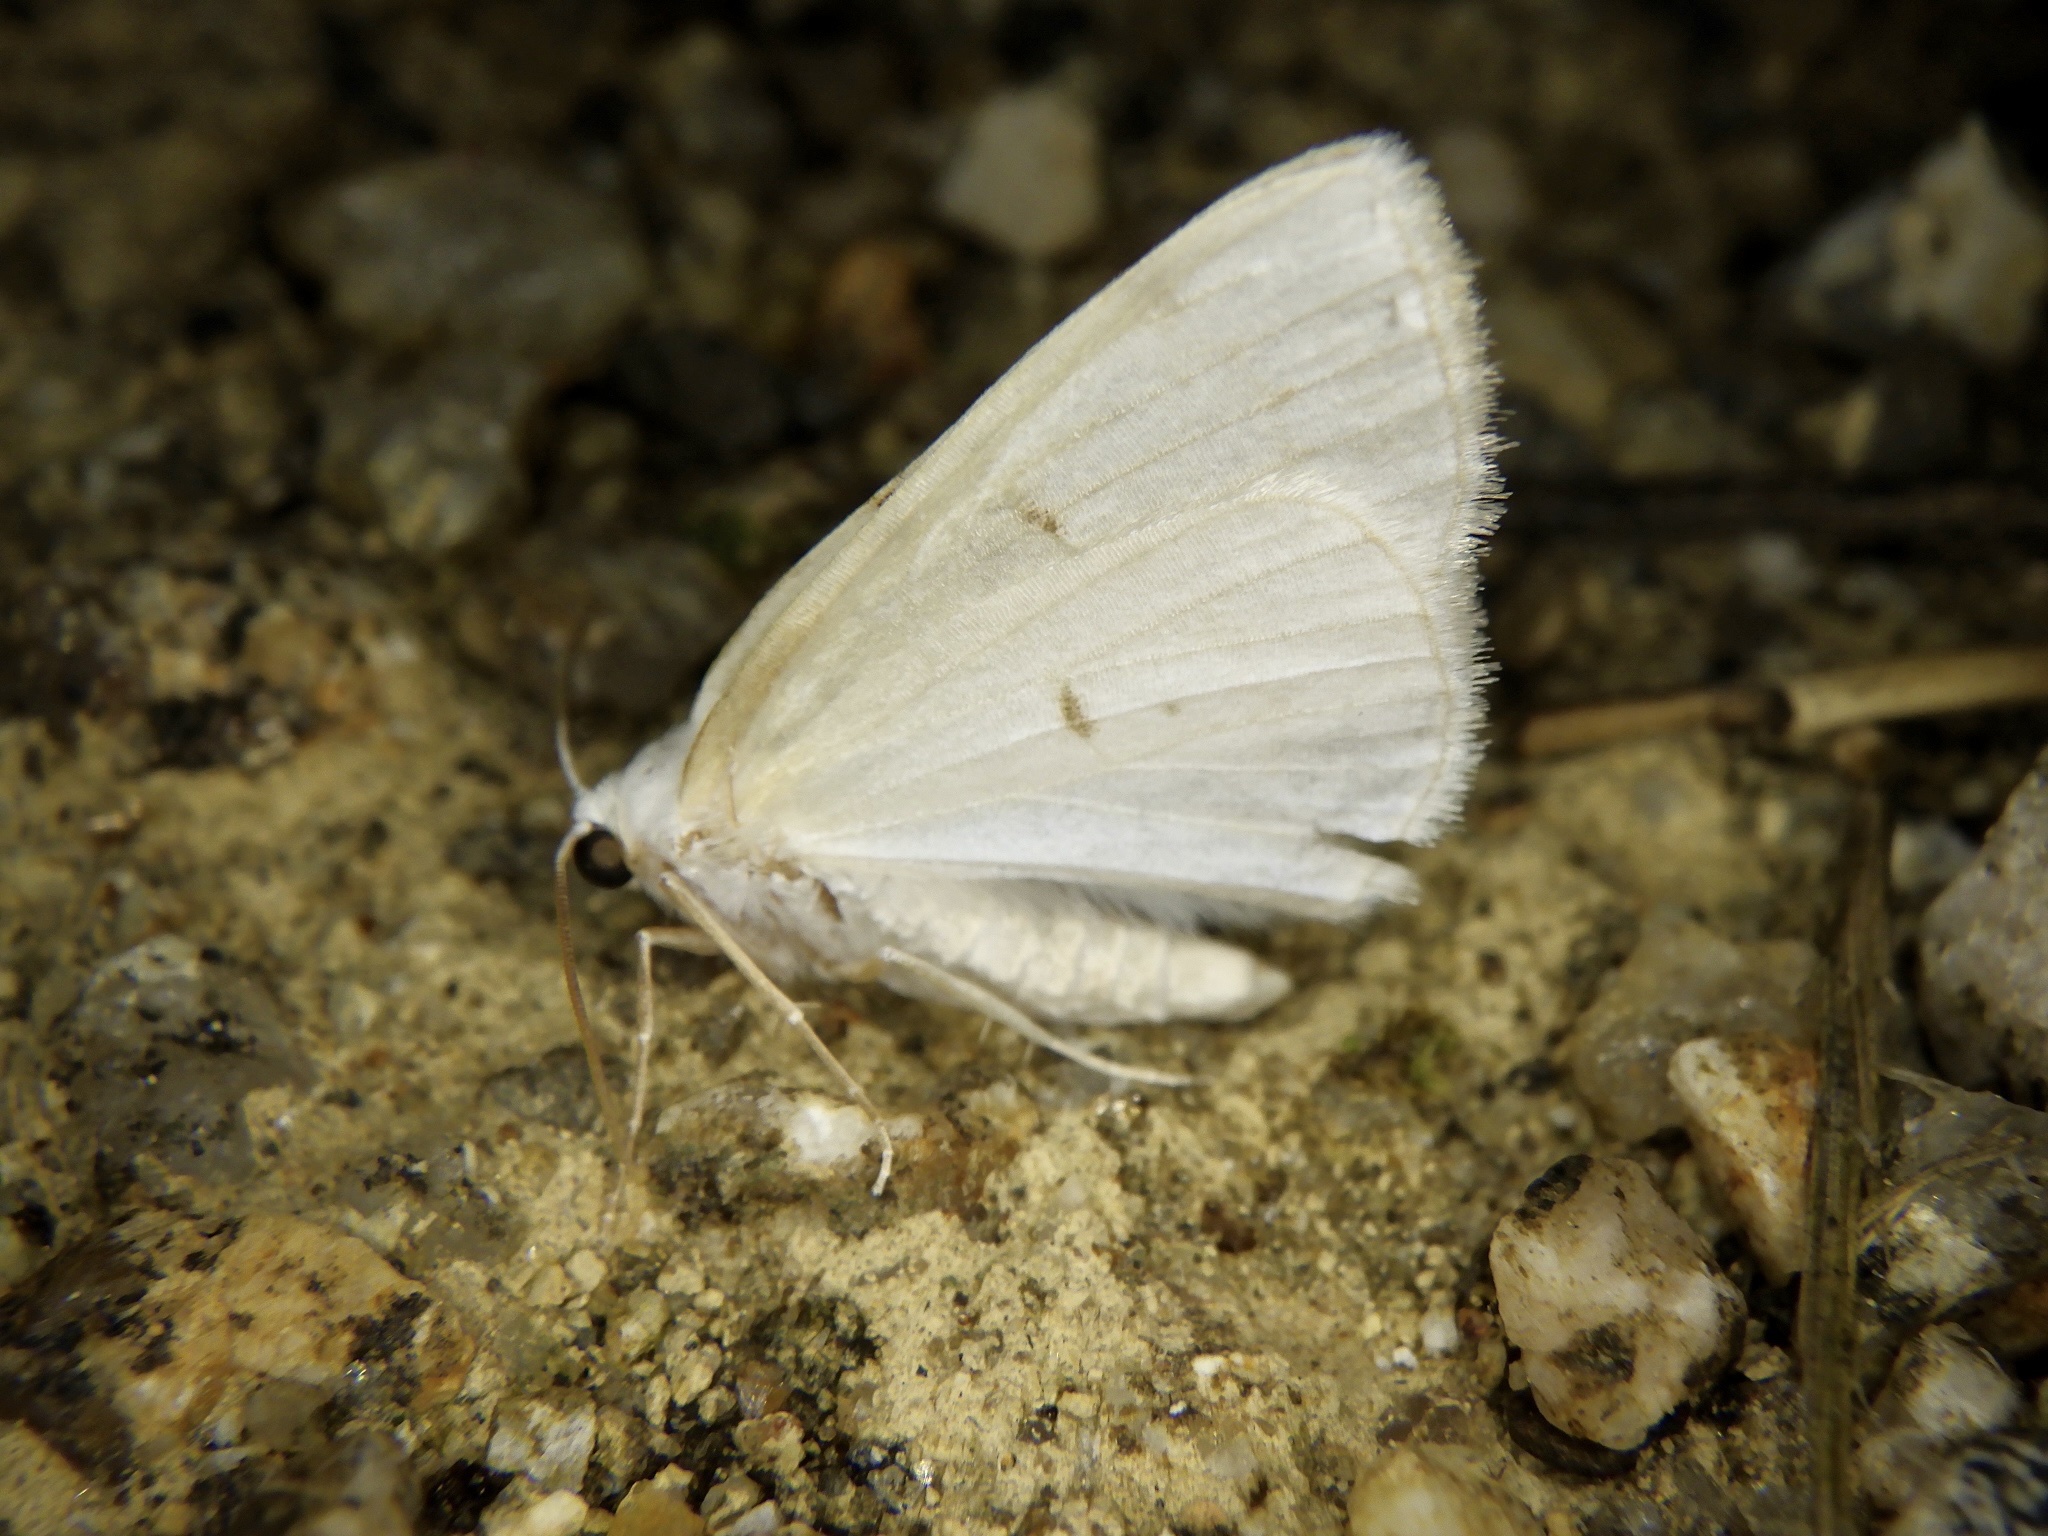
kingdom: Animalia
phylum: Arthropoda
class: Insecta
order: Lepidoptera
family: Geometridae
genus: Lomographa
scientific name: Lomographa bimaculata
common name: White-pinion spotted
